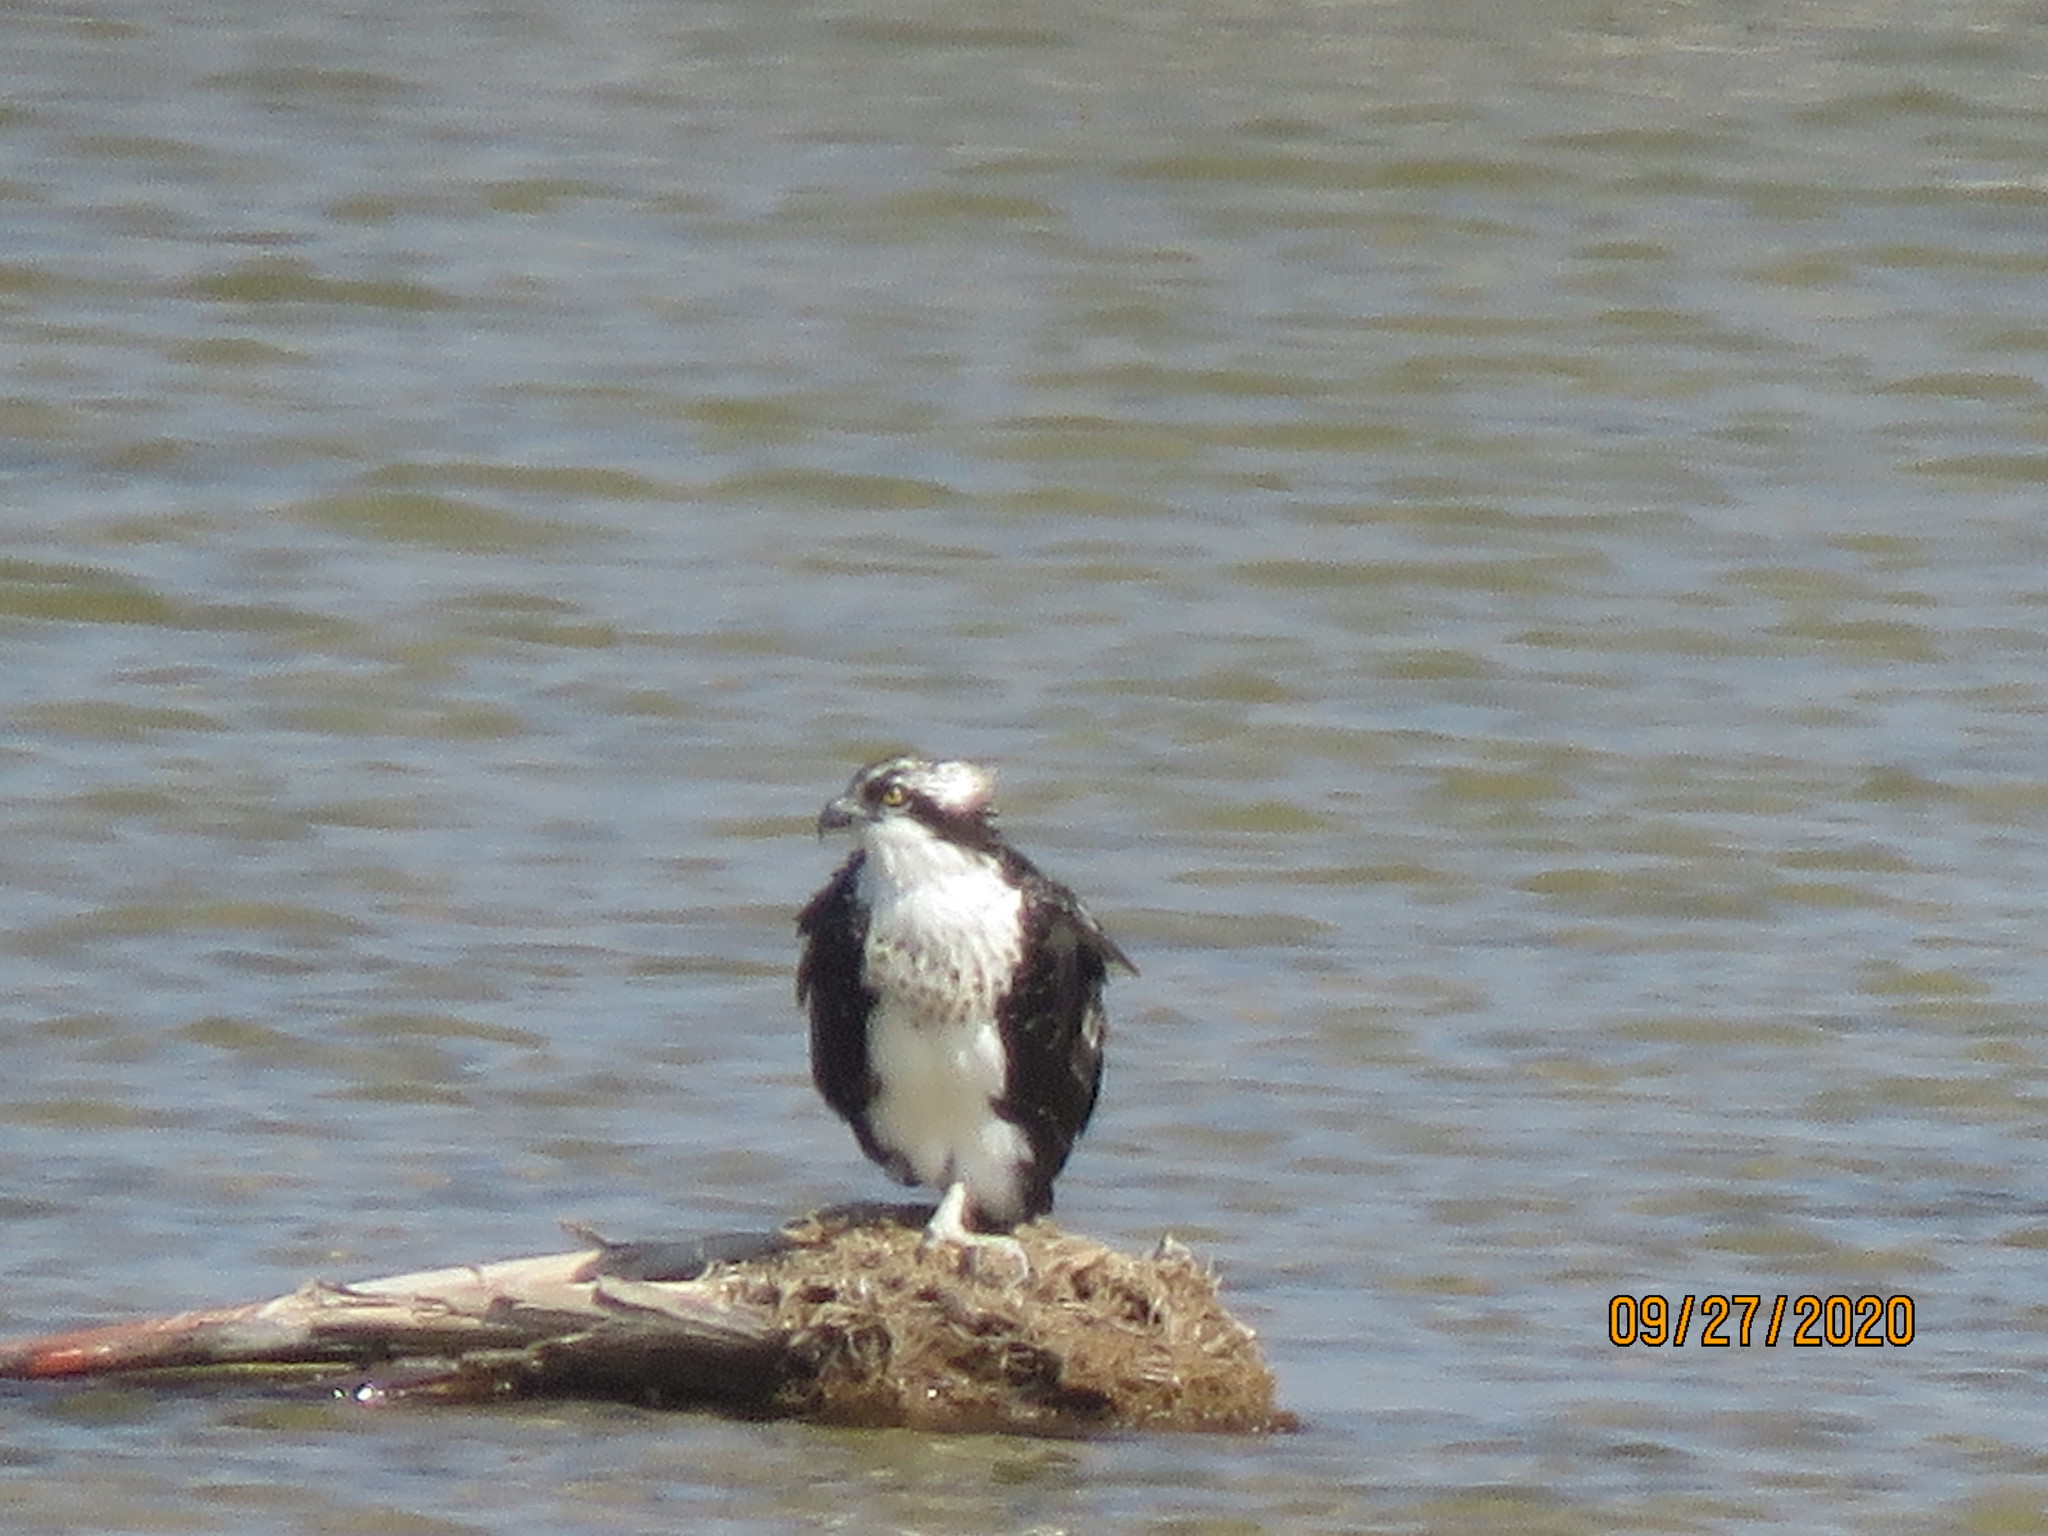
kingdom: Animalia
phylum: Chordata
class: Aves
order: Accipitriformes
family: Pandionidae
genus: Pandion
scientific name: Pandion haliaetus
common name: Osprey
